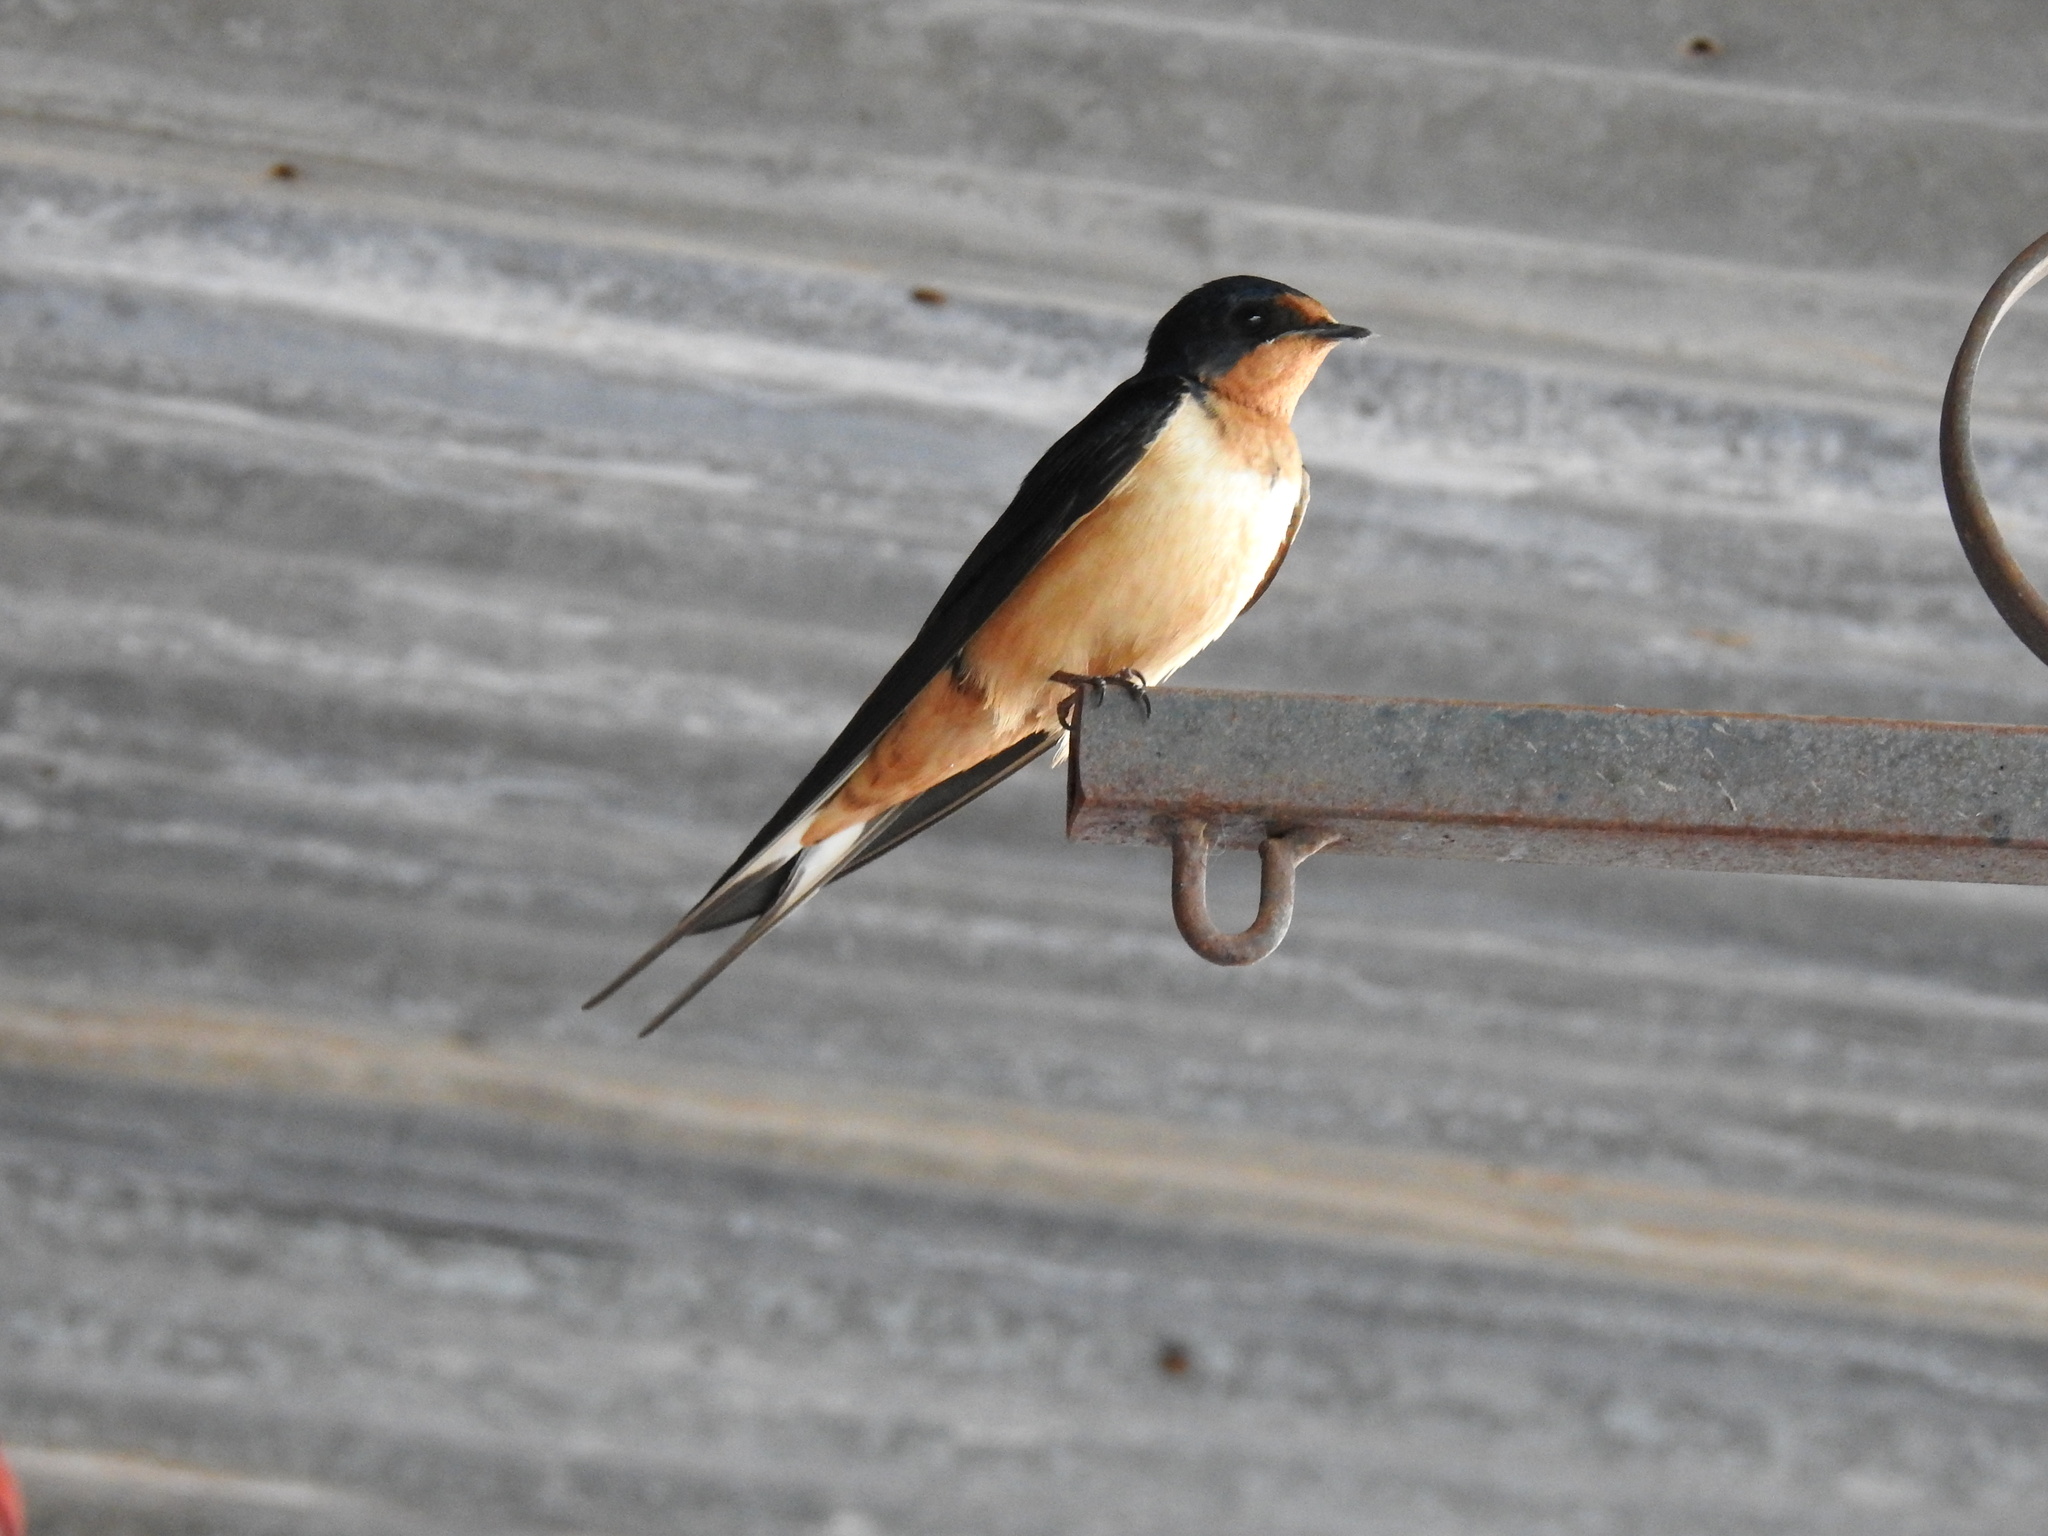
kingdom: Animalia
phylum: Chordata
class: Aves
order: Passeriformes
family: Hirundinidae
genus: Hirundo
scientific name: Hirundo rustica
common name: Barn swallow
